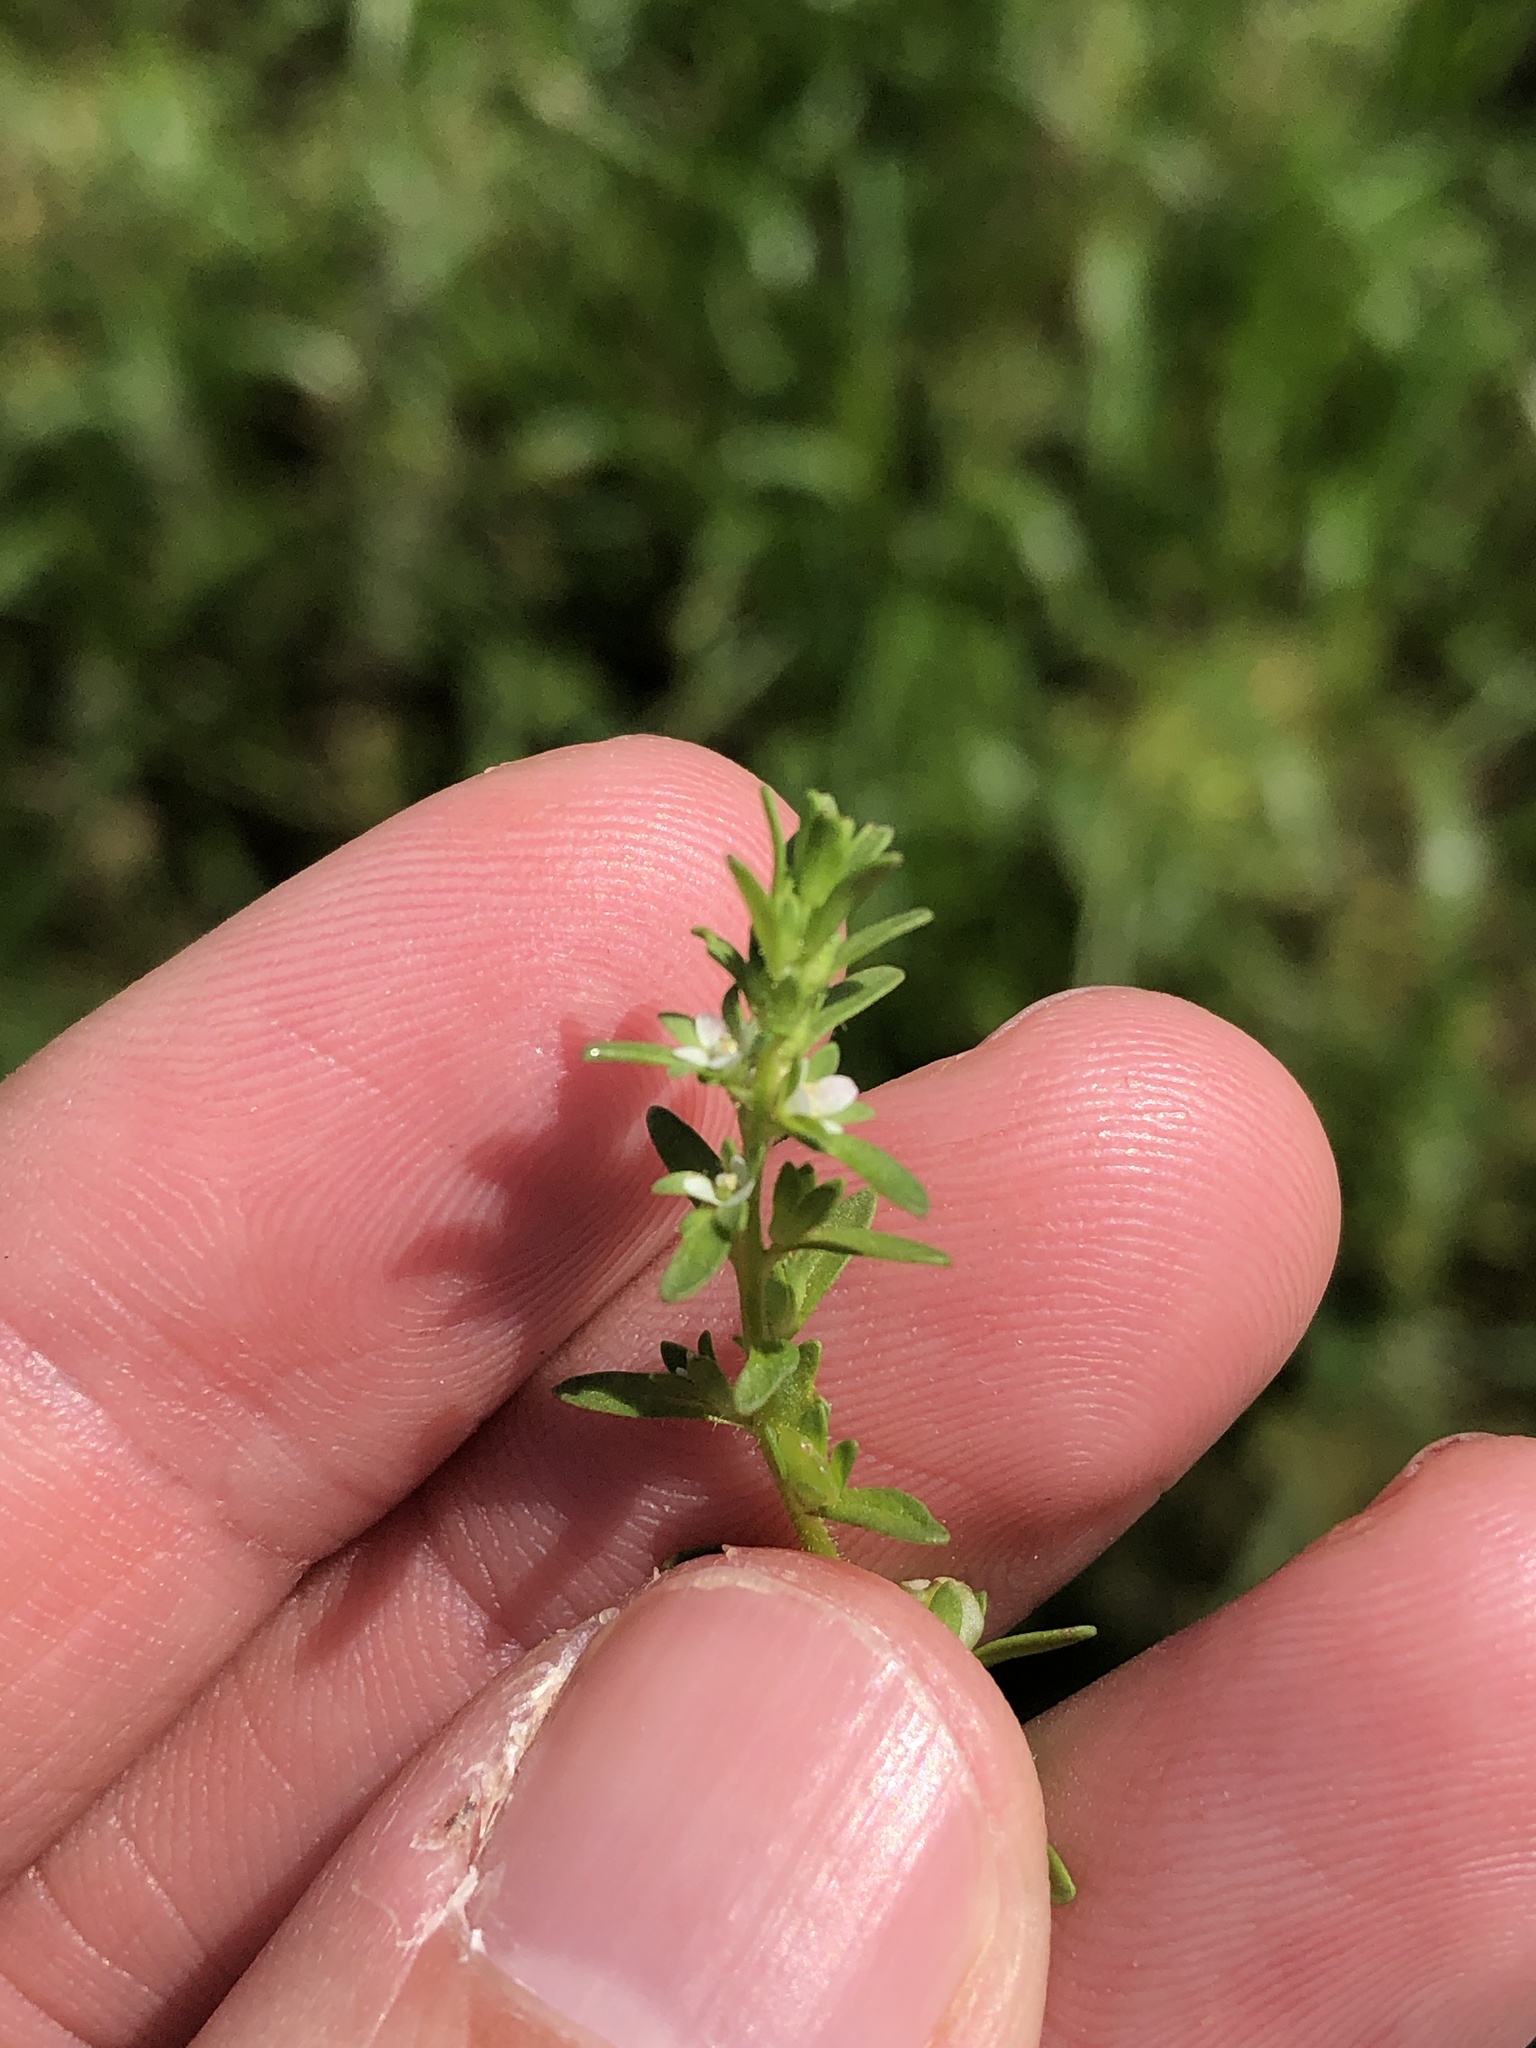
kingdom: Plantae
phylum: Tracheophyta
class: Magnoliopsida
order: Lamiales
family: Plantaginaceae
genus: Veronica
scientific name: Veronica peregrina
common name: Neckweed
